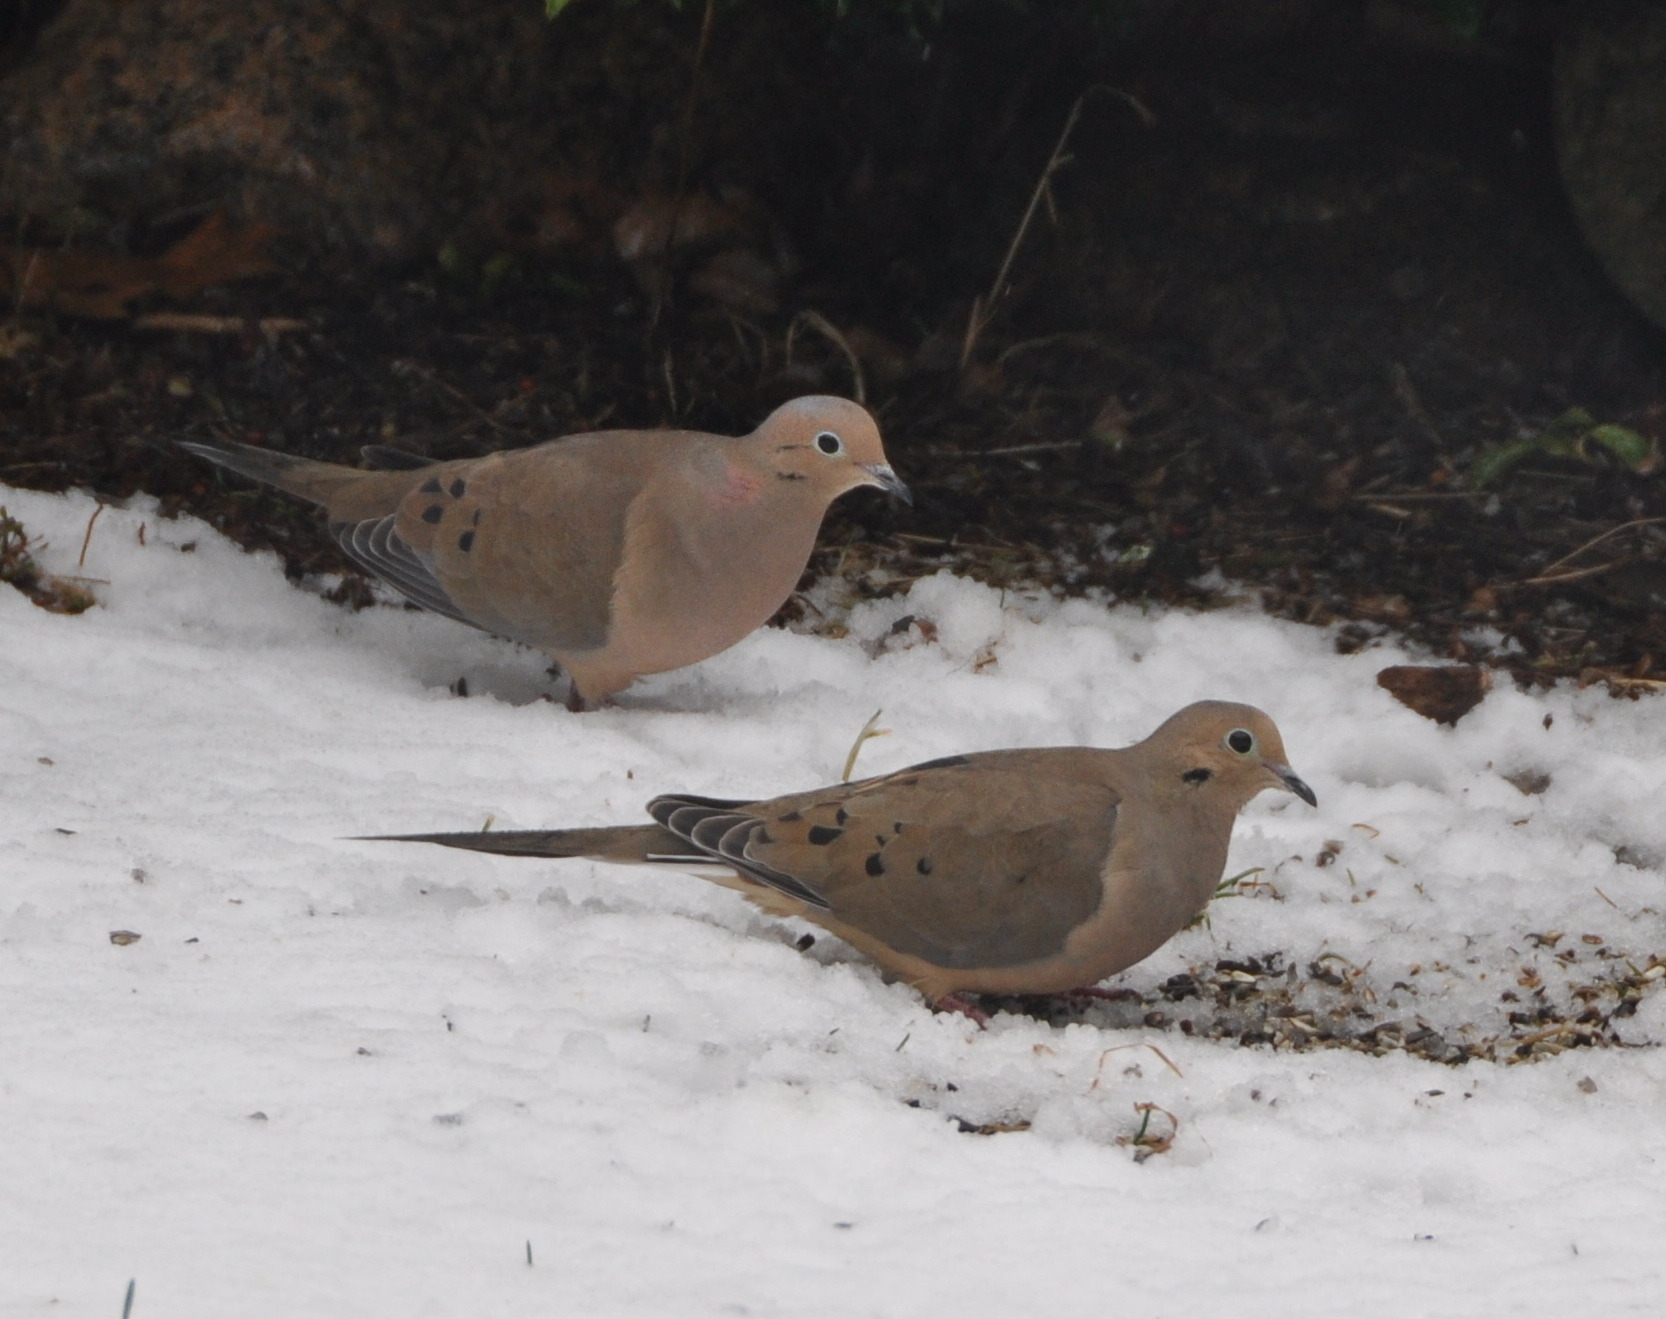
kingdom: Animalia
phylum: Chordata
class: Aves
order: Columbiformes
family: Columbidae
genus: Zenaida
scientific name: Zenaida macroura
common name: Mourning dove
